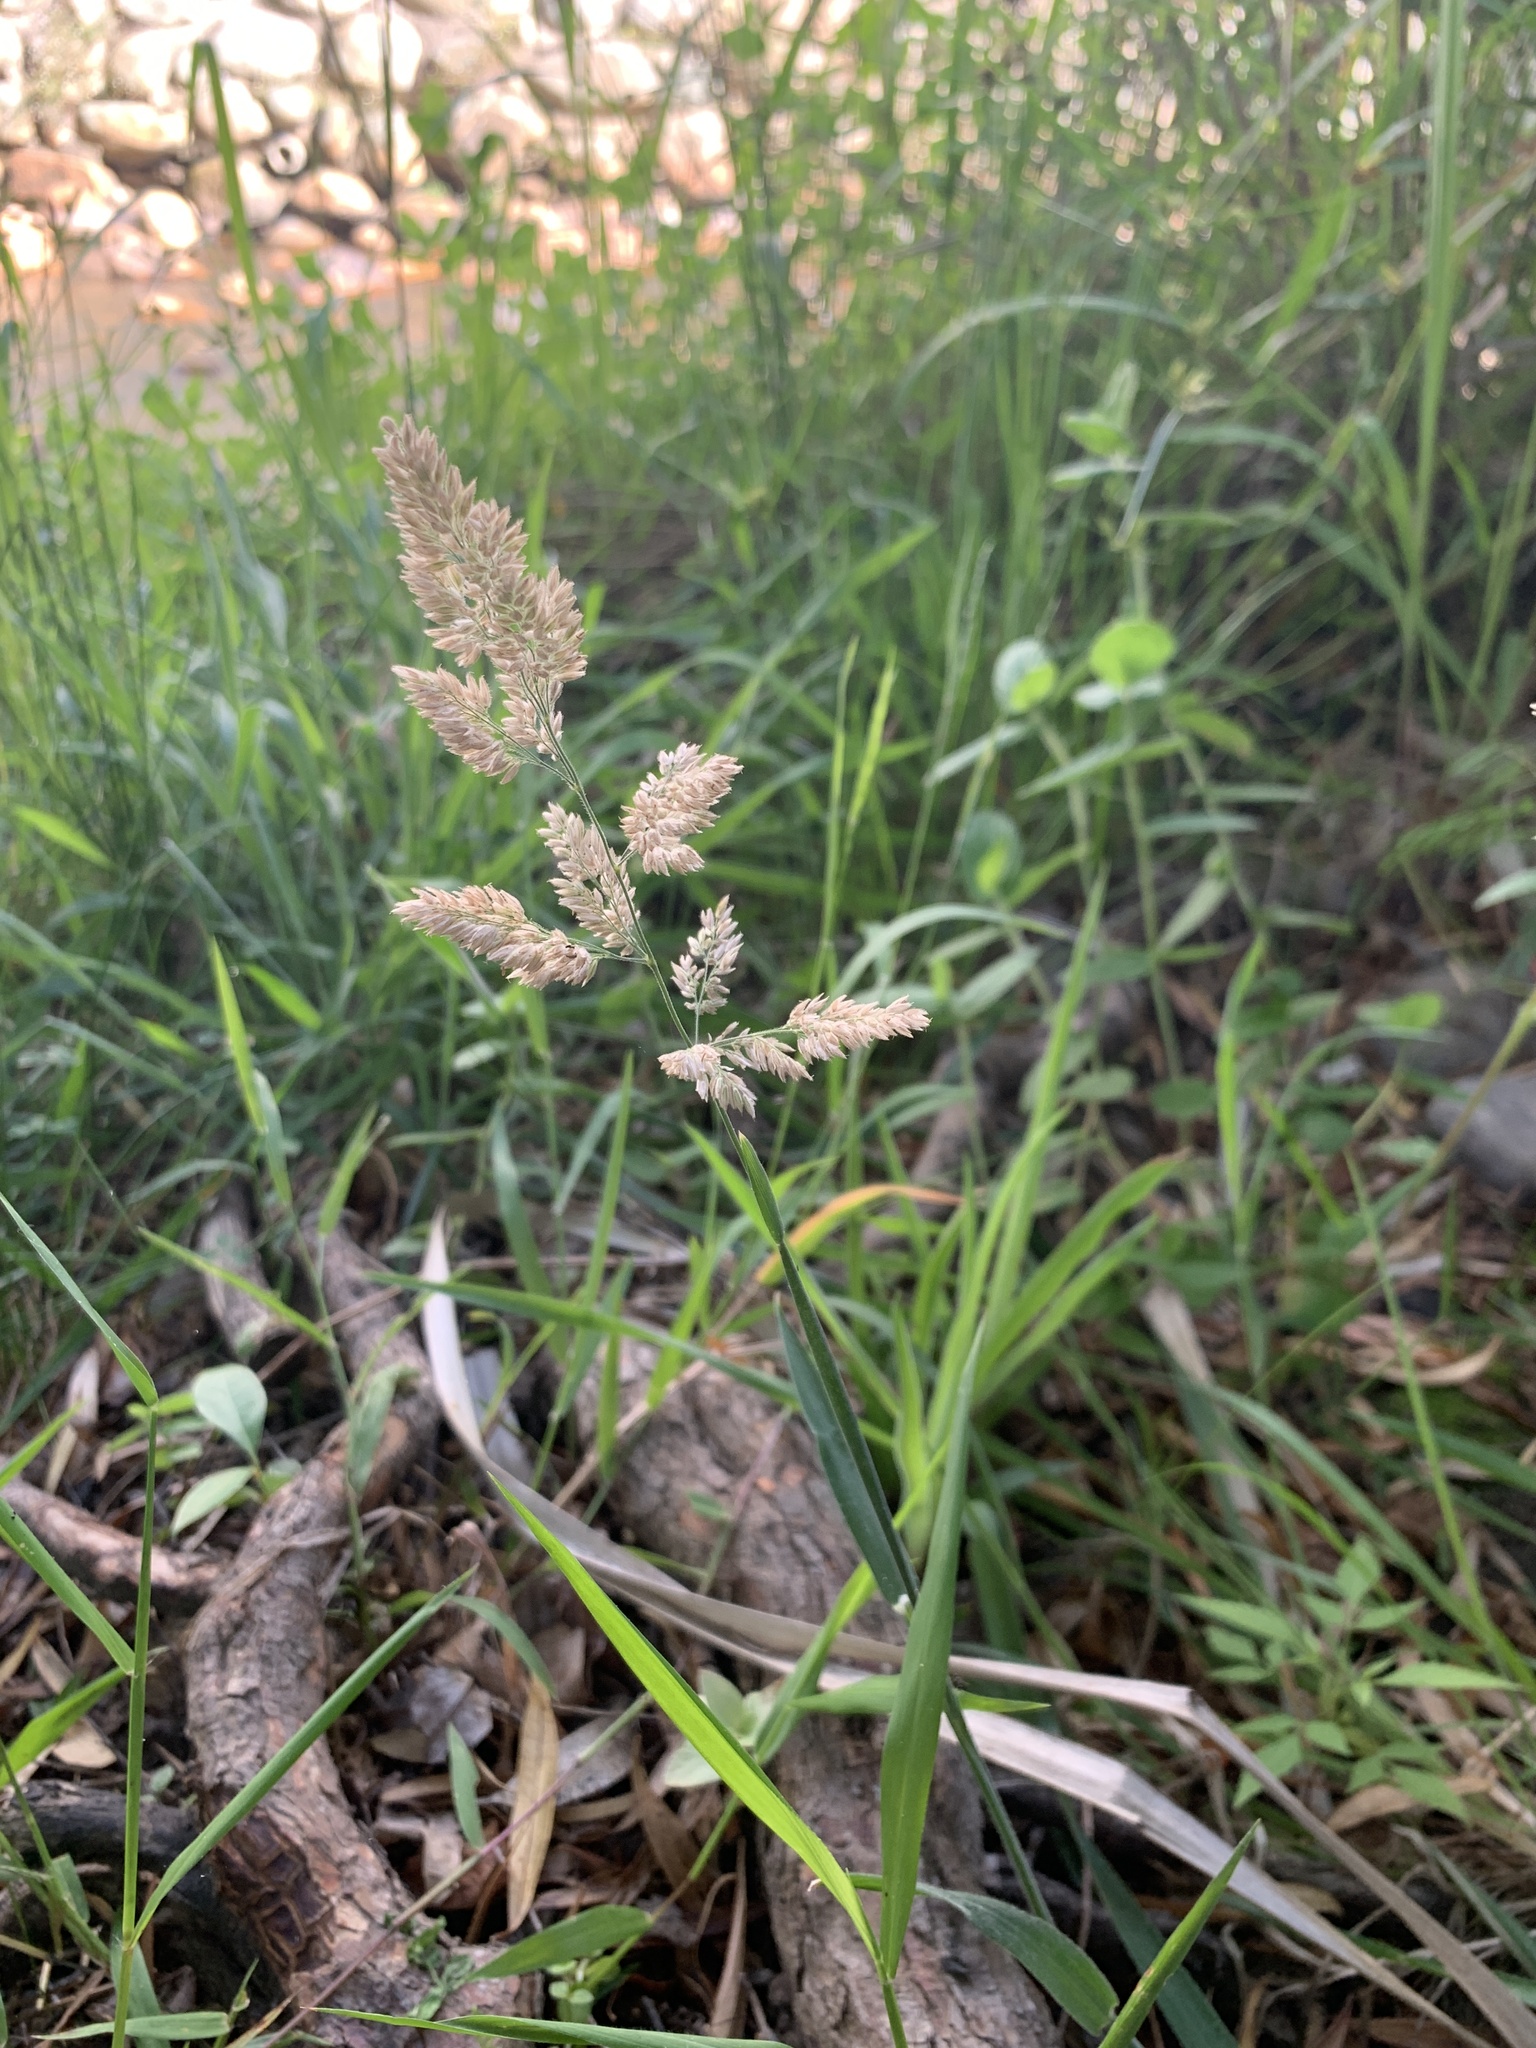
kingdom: Plantae
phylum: Tracheophyta
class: Liliopsida
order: Poales
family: Poaceae
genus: Holcus
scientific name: Holcus lanatus
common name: Yorkshire-fog
